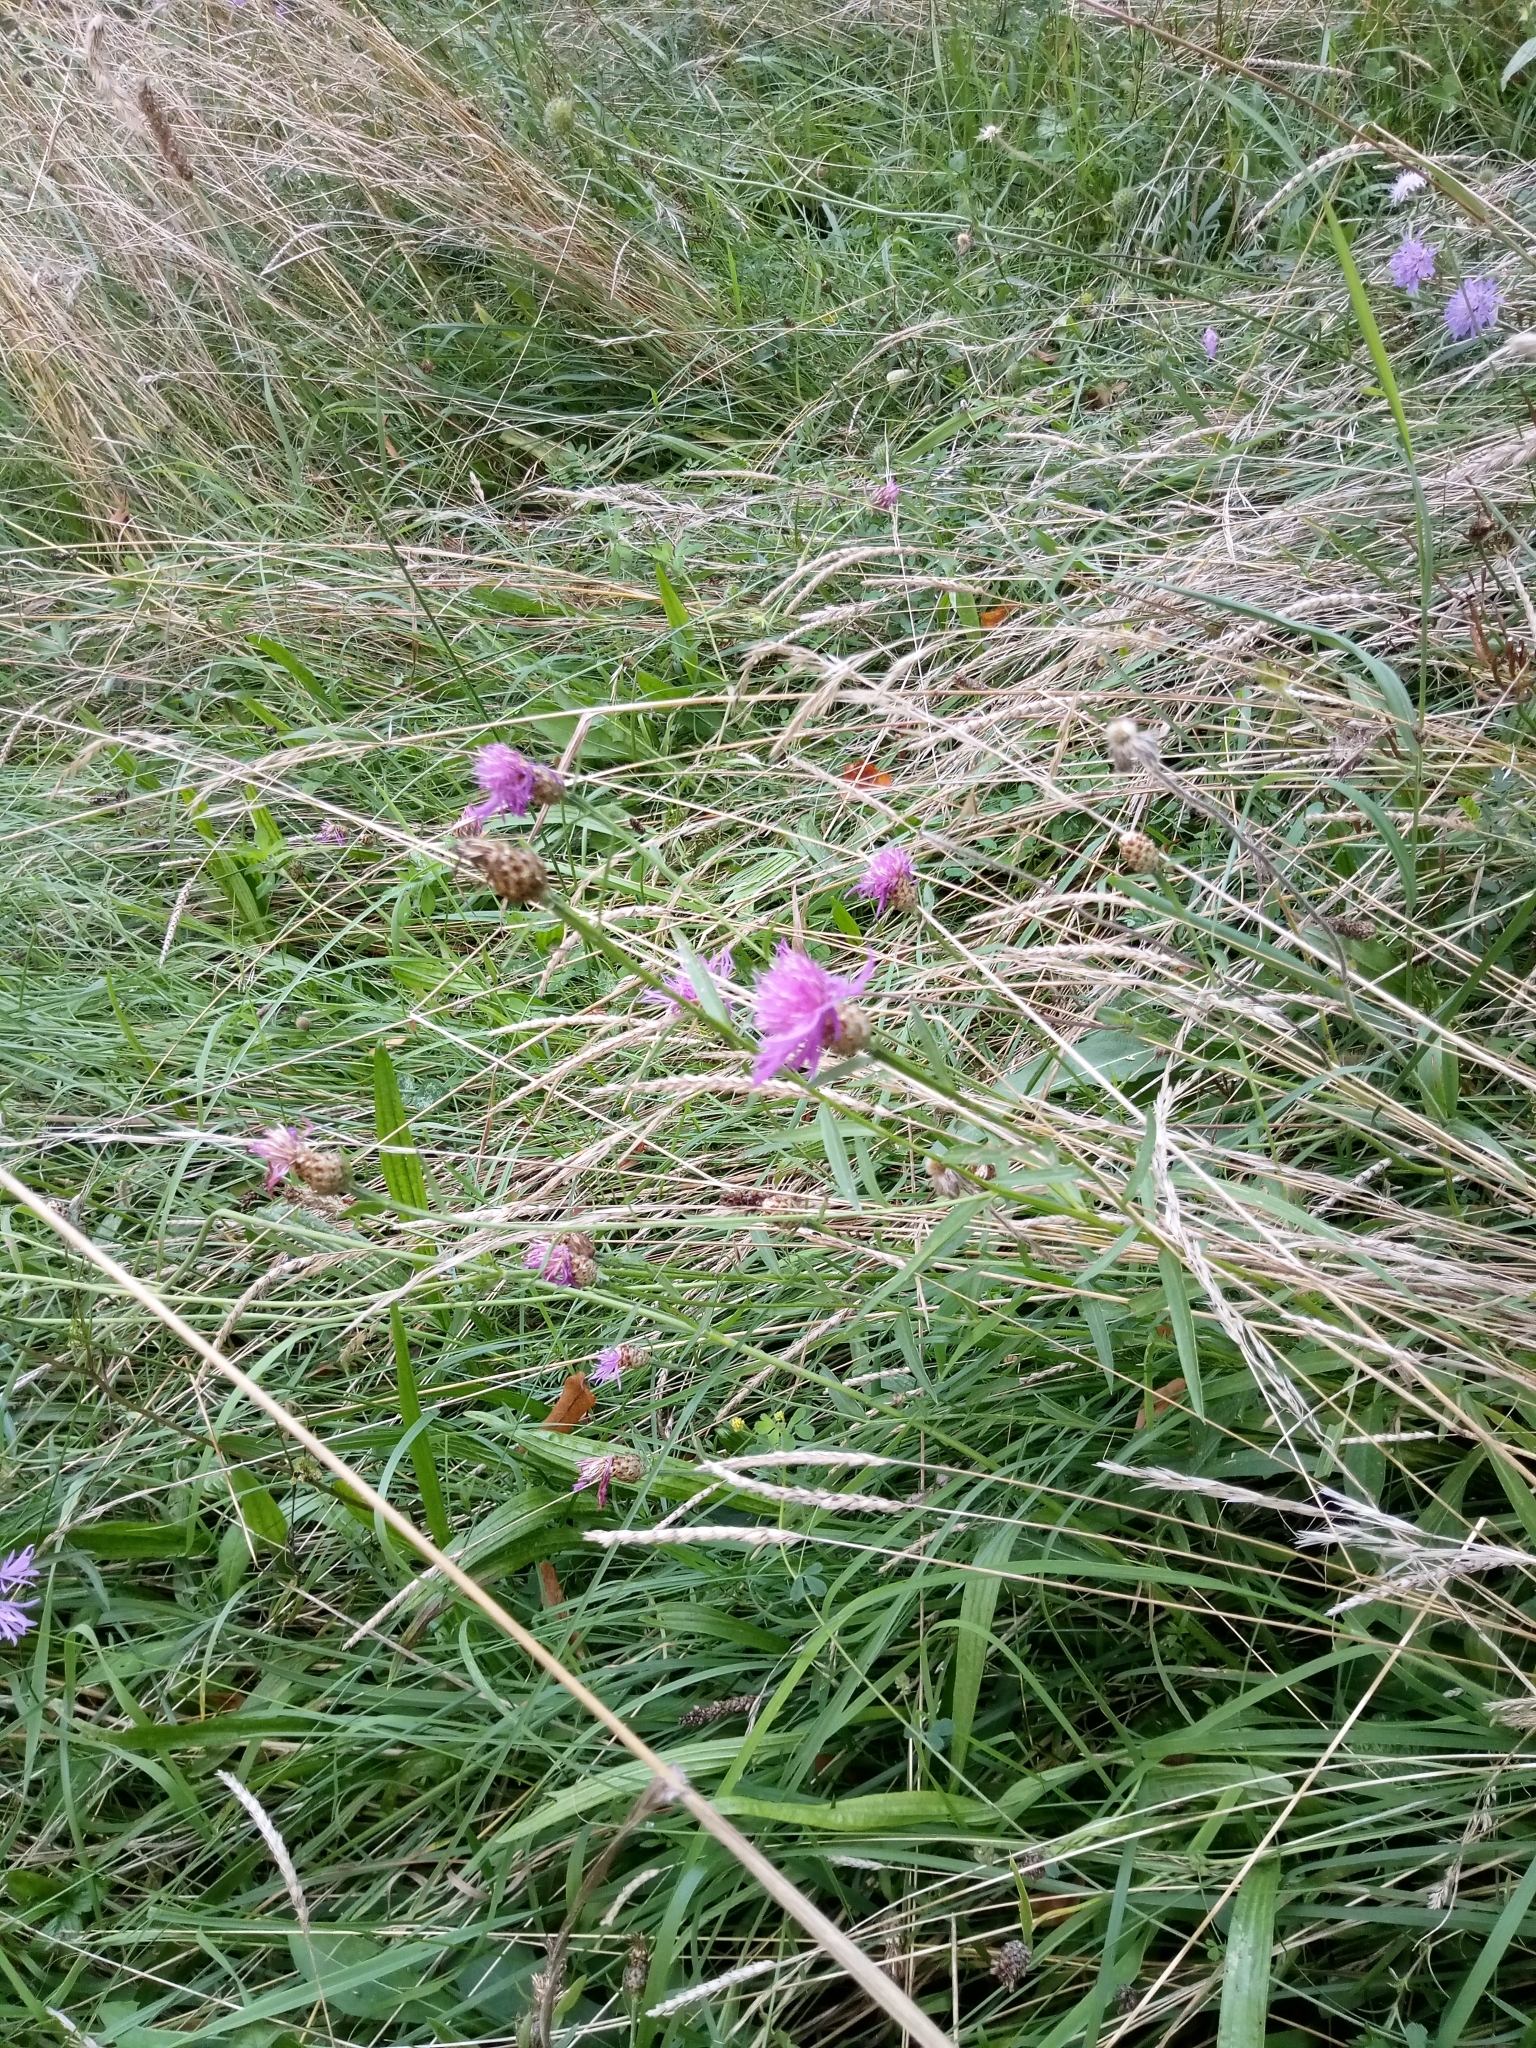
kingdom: Plantae
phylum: Tracheophyta
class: Magnoliopsida
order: Asterales
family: Asteraceae
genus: Centaurea
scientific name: Centaurea jacea
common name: Brown knapweed
